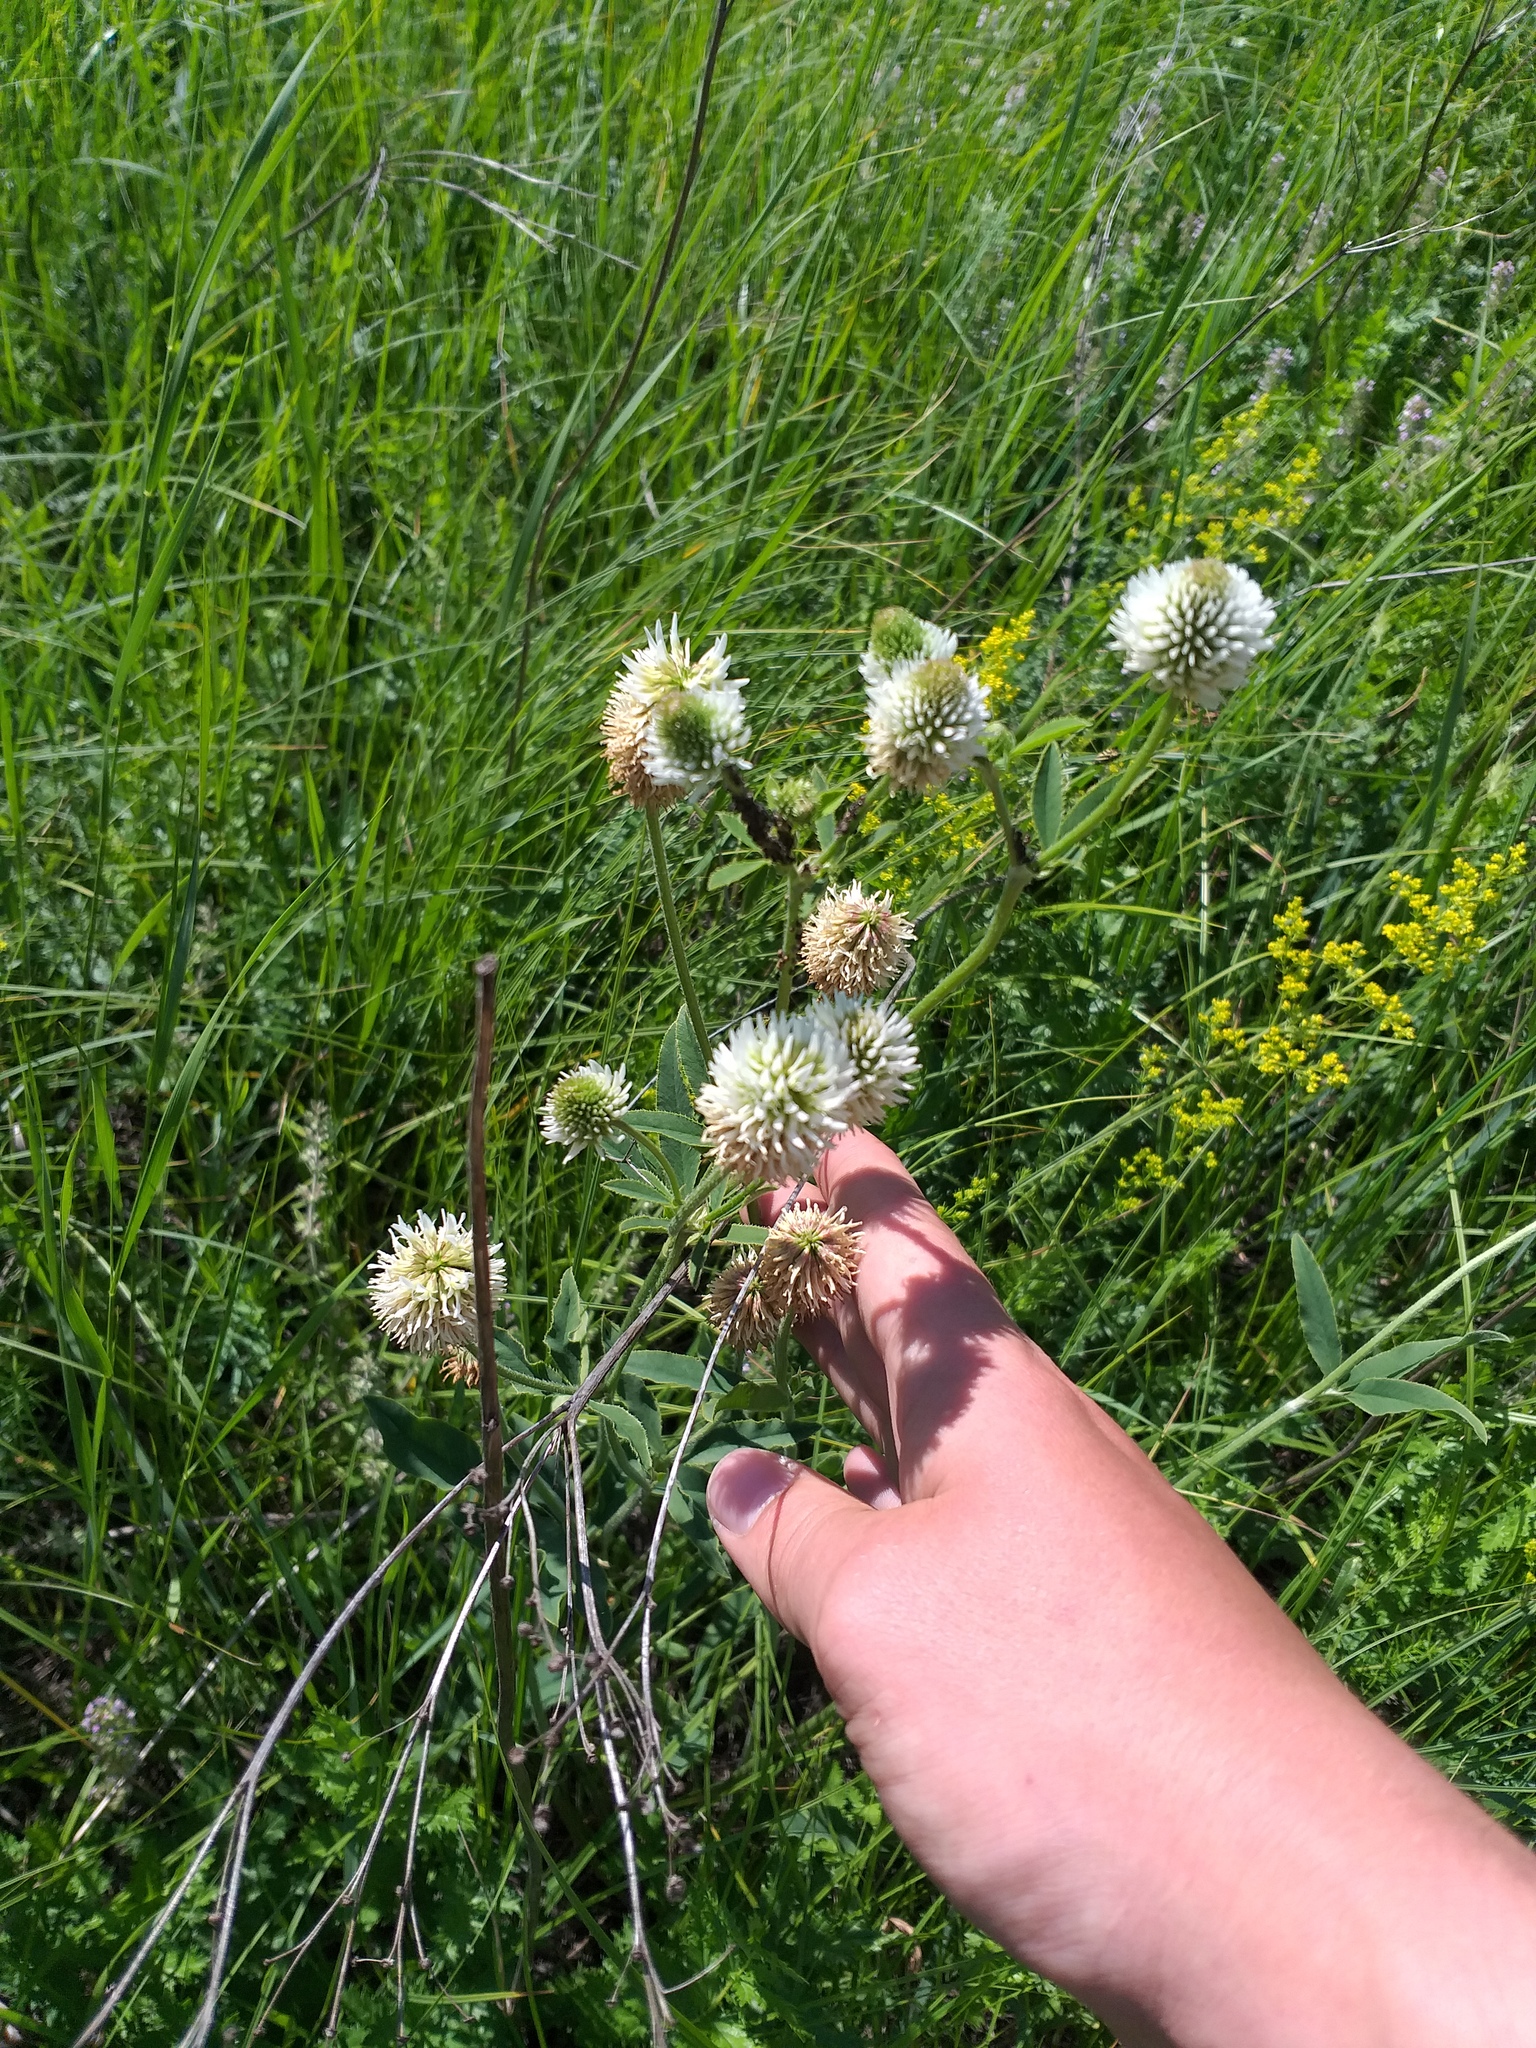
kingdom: Plantae
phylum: Tracheophyta
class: Magnoliopsida
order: Fabales
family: Fabaceae
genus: Trifolium
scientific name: Trifolium montanum
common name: Mountain clover
